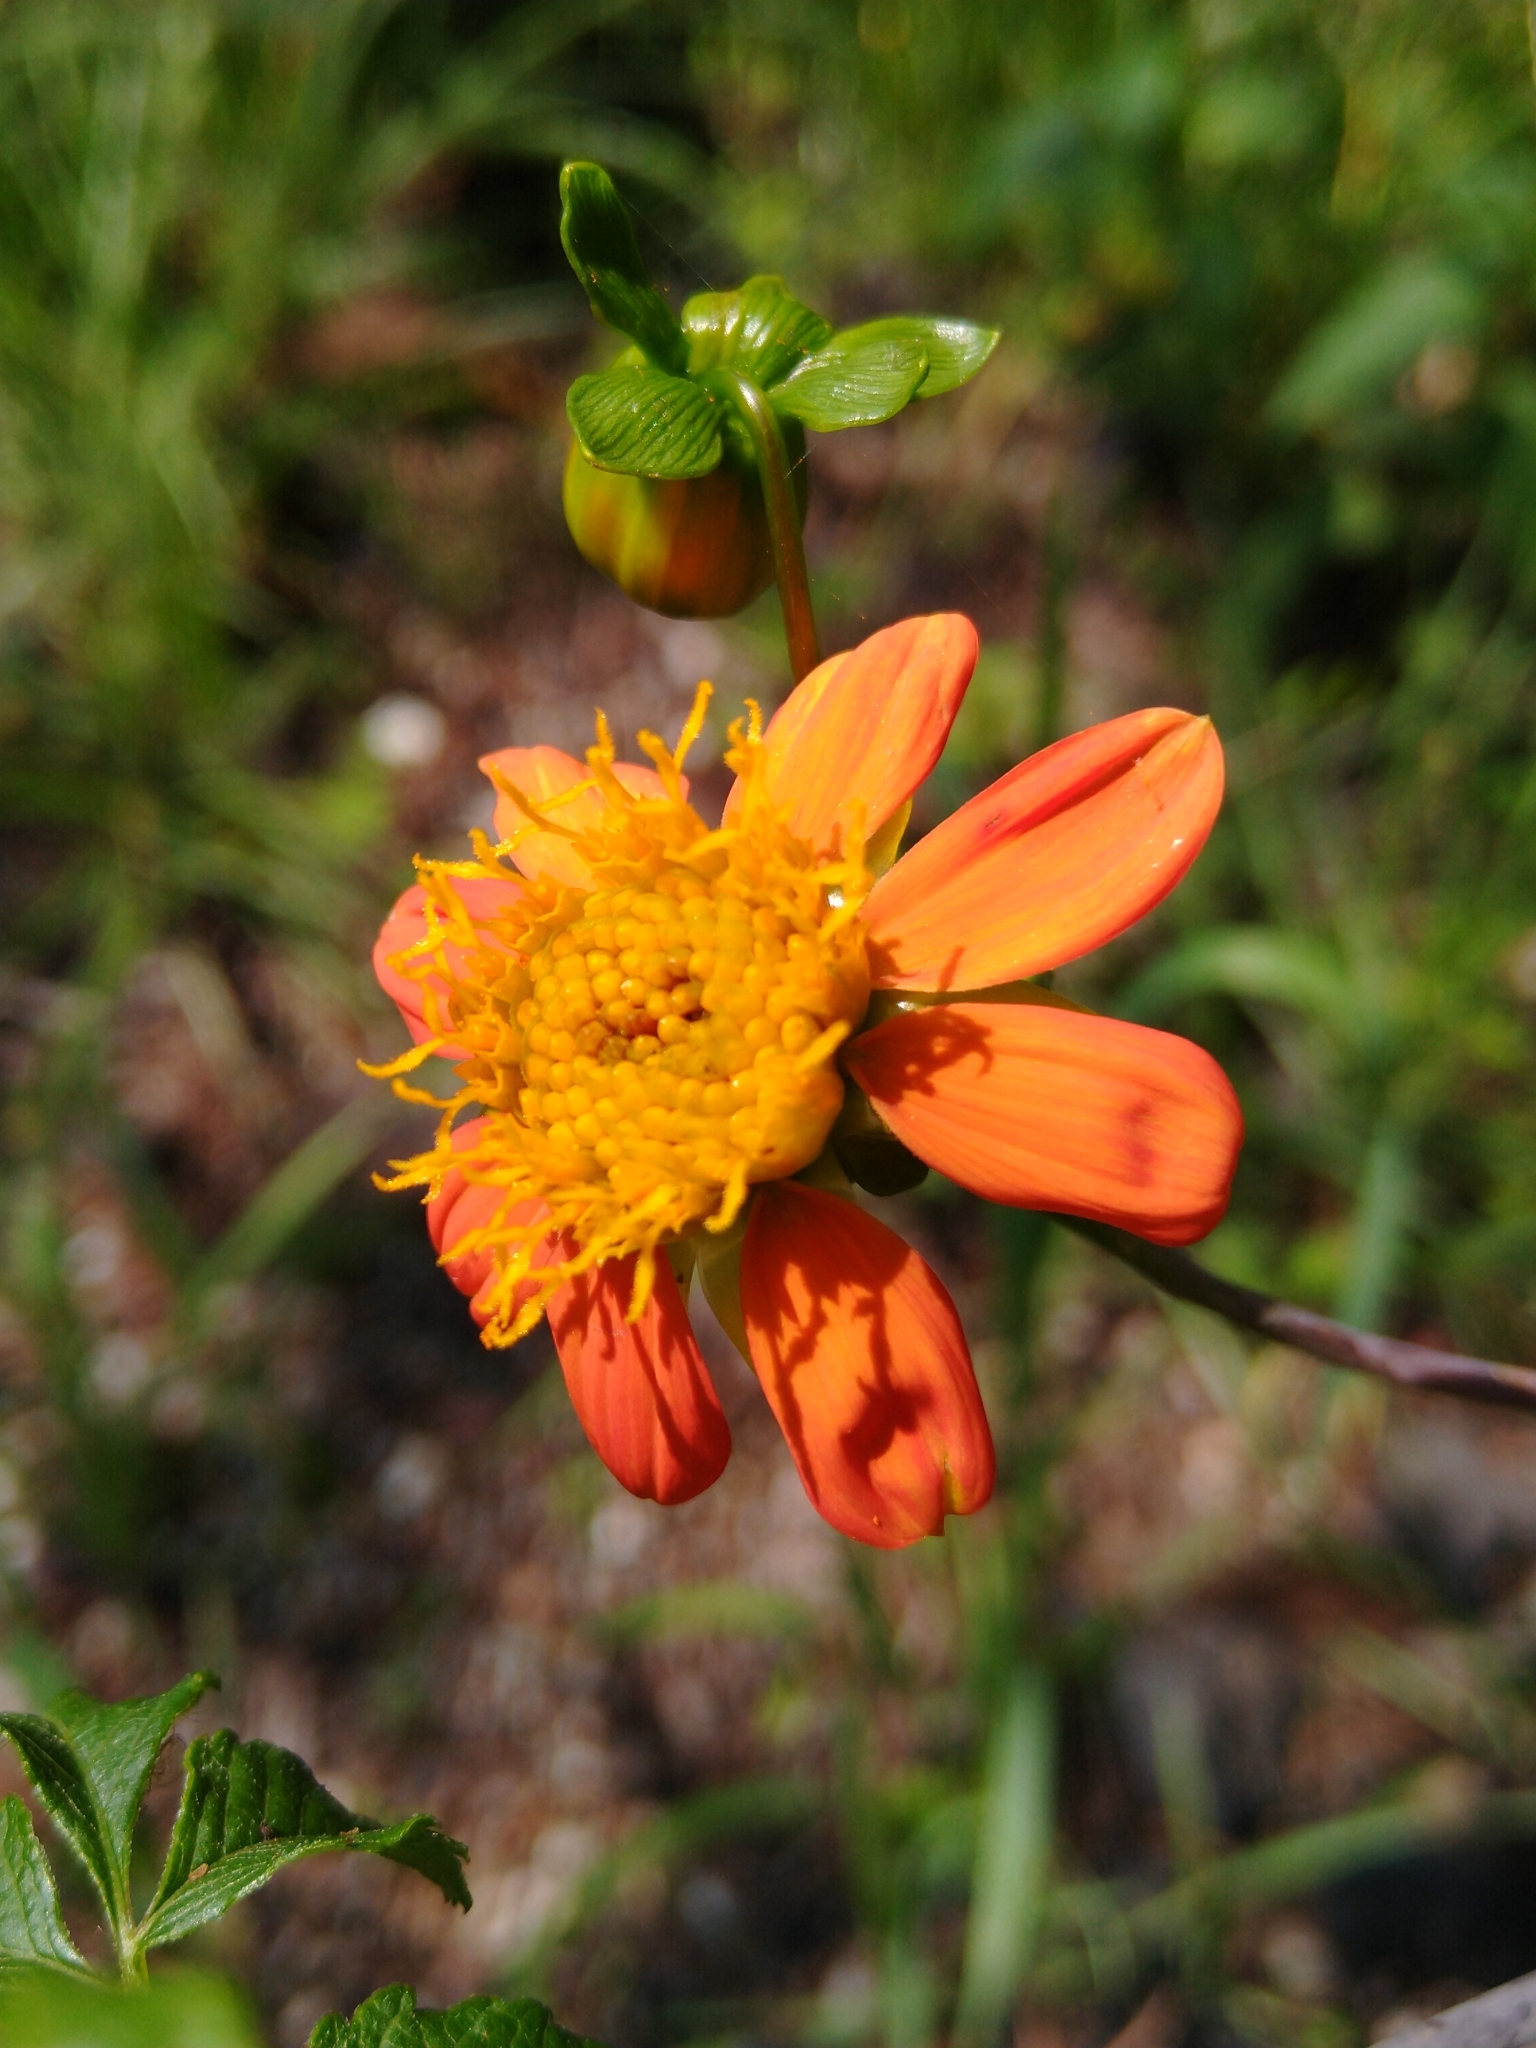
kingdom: Plantae
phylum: Tracheophyta
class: Magnoliopsida
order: Asterales
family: Asteraceae
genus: Dahlia
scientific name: Dahlia coccinea
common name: Red dahlia
